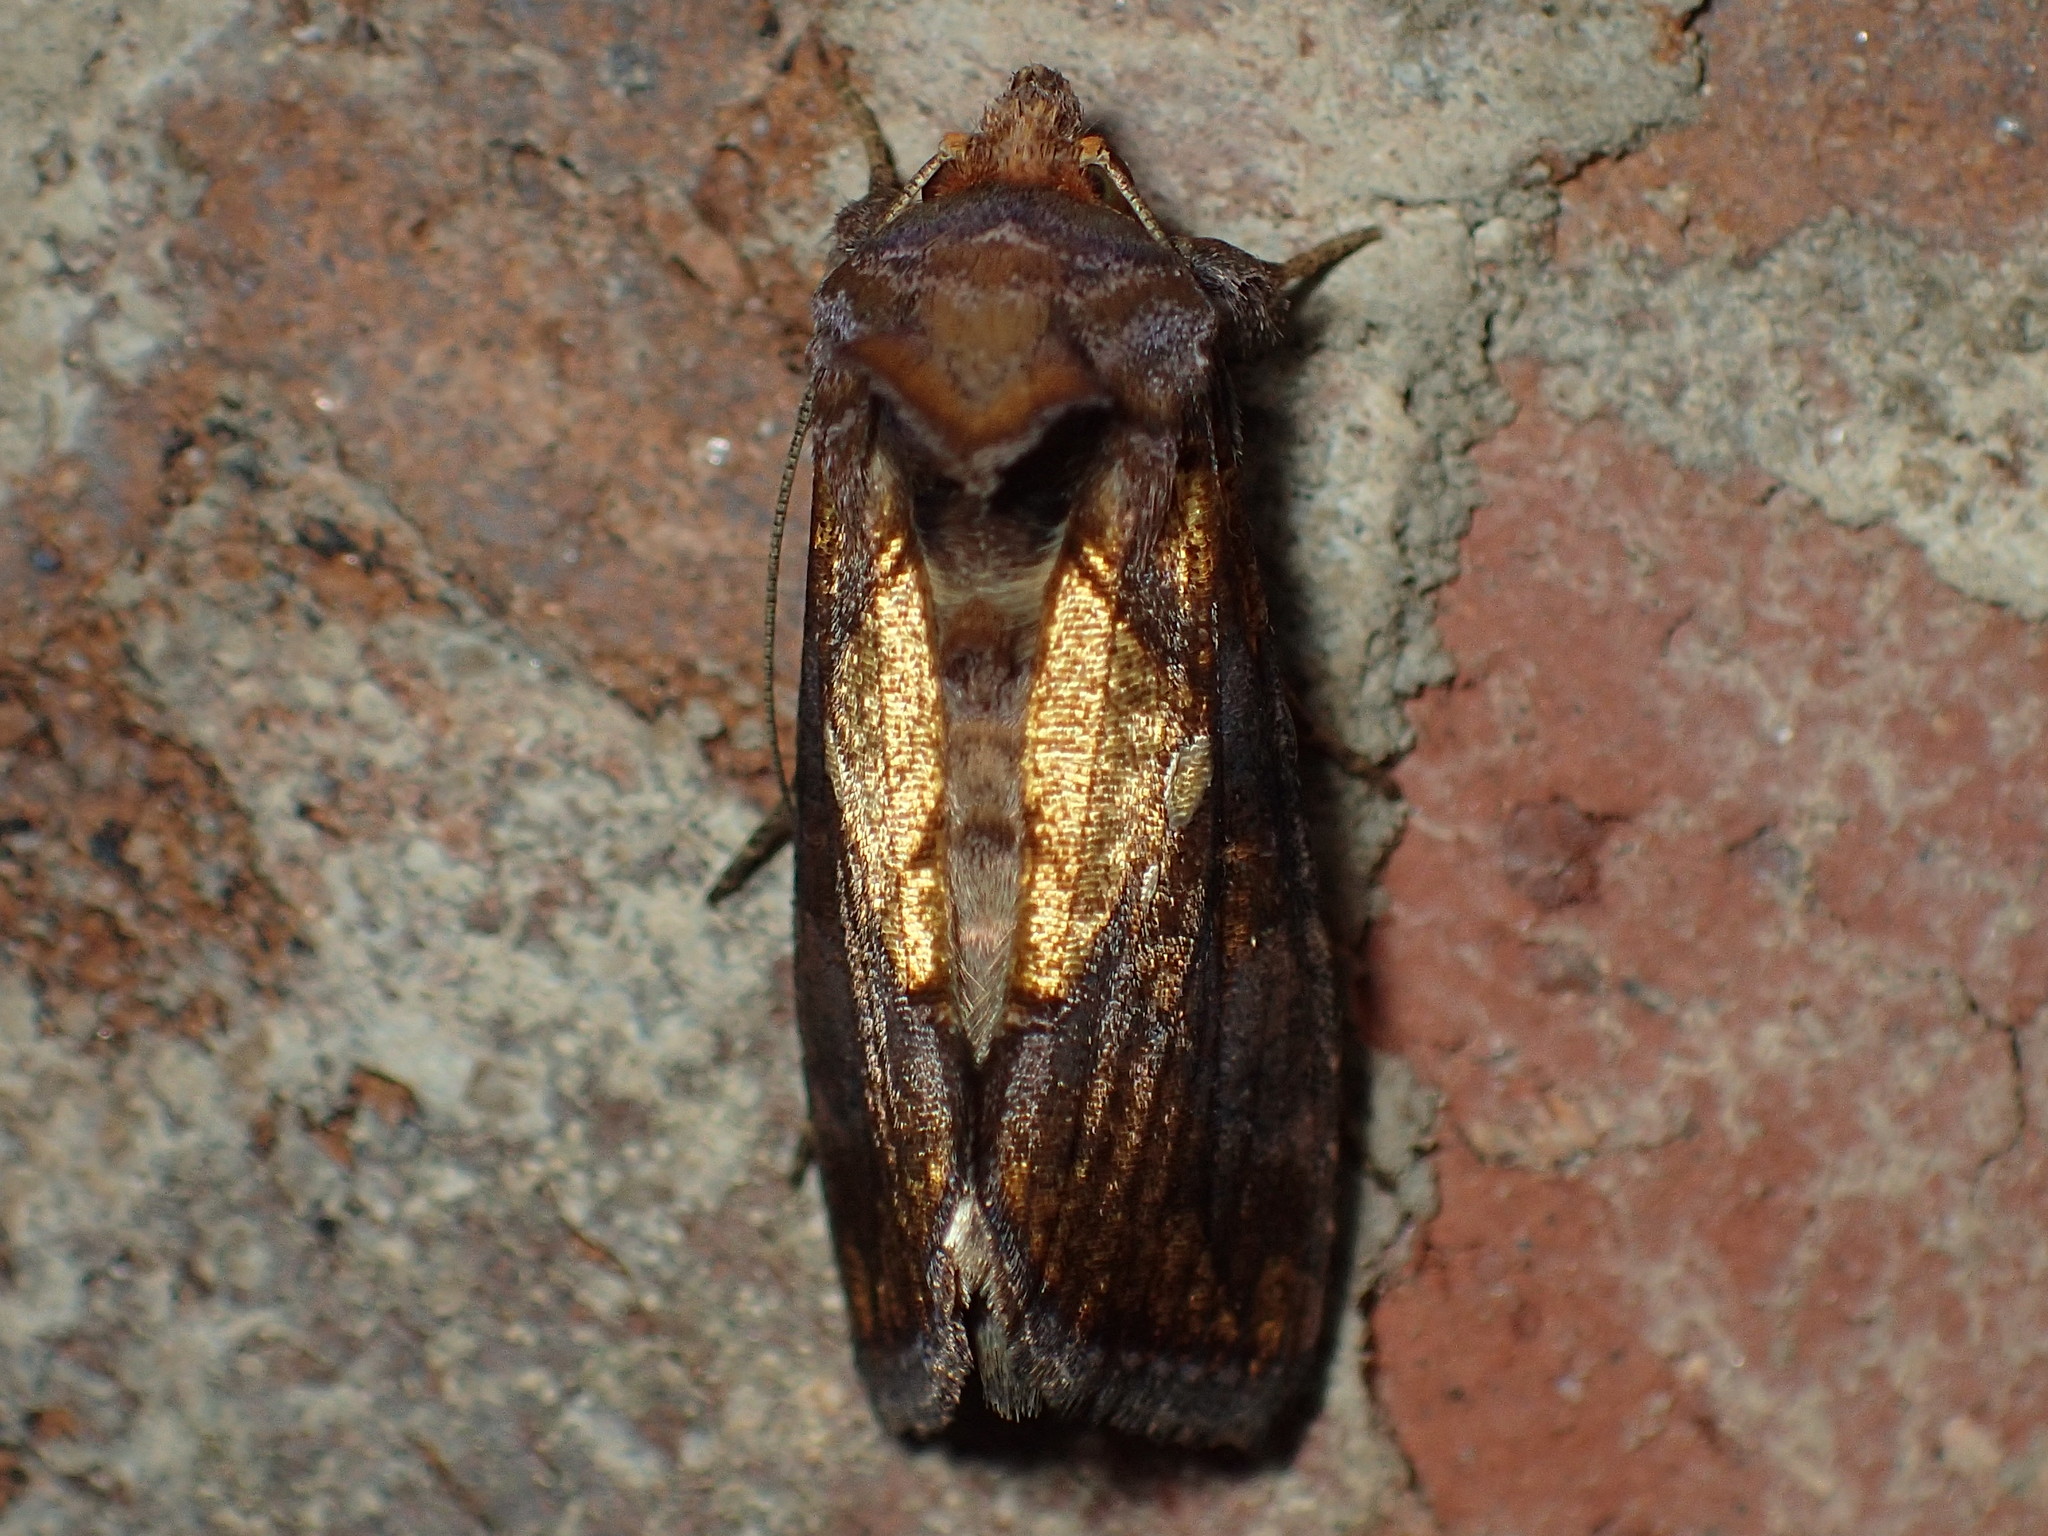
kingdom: Animalia
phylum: Arthropoda
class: Insecta
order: Lepidoptera
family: Noctuidae
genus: Argyrogramma
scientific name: Argyrogramma verruca
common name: Golden looper moth
